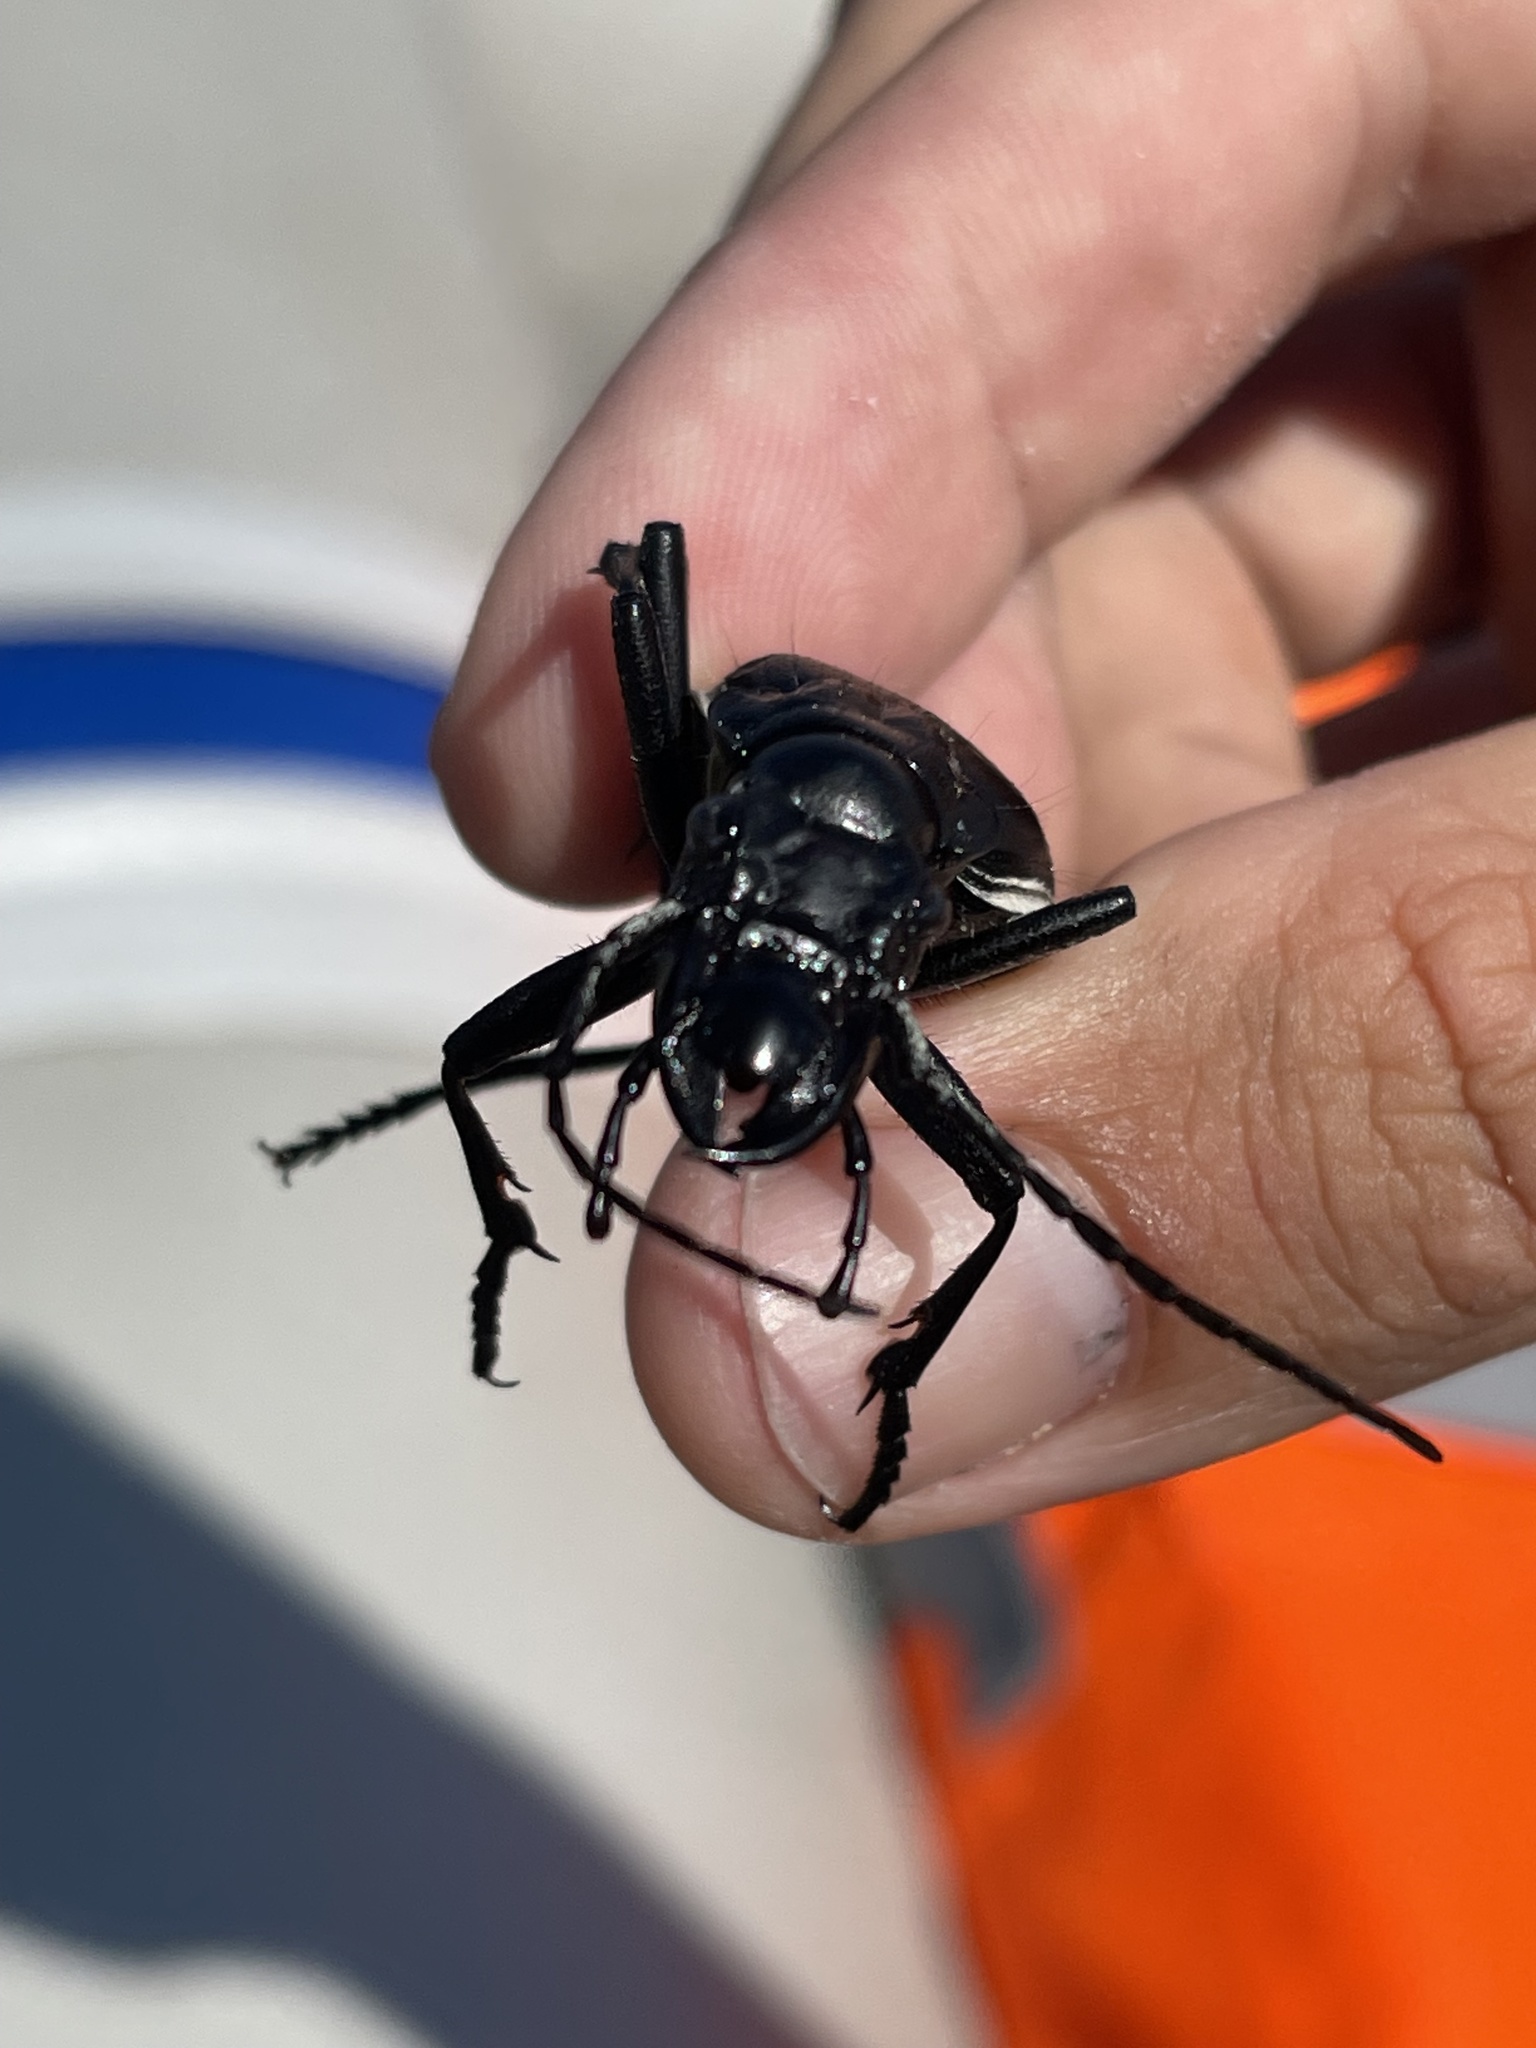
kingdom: Animalia
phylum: Arthropoda
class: Insecta
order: Coleoptera
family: Carabidae
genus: Anthia
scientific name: Anthia cinctipennis
